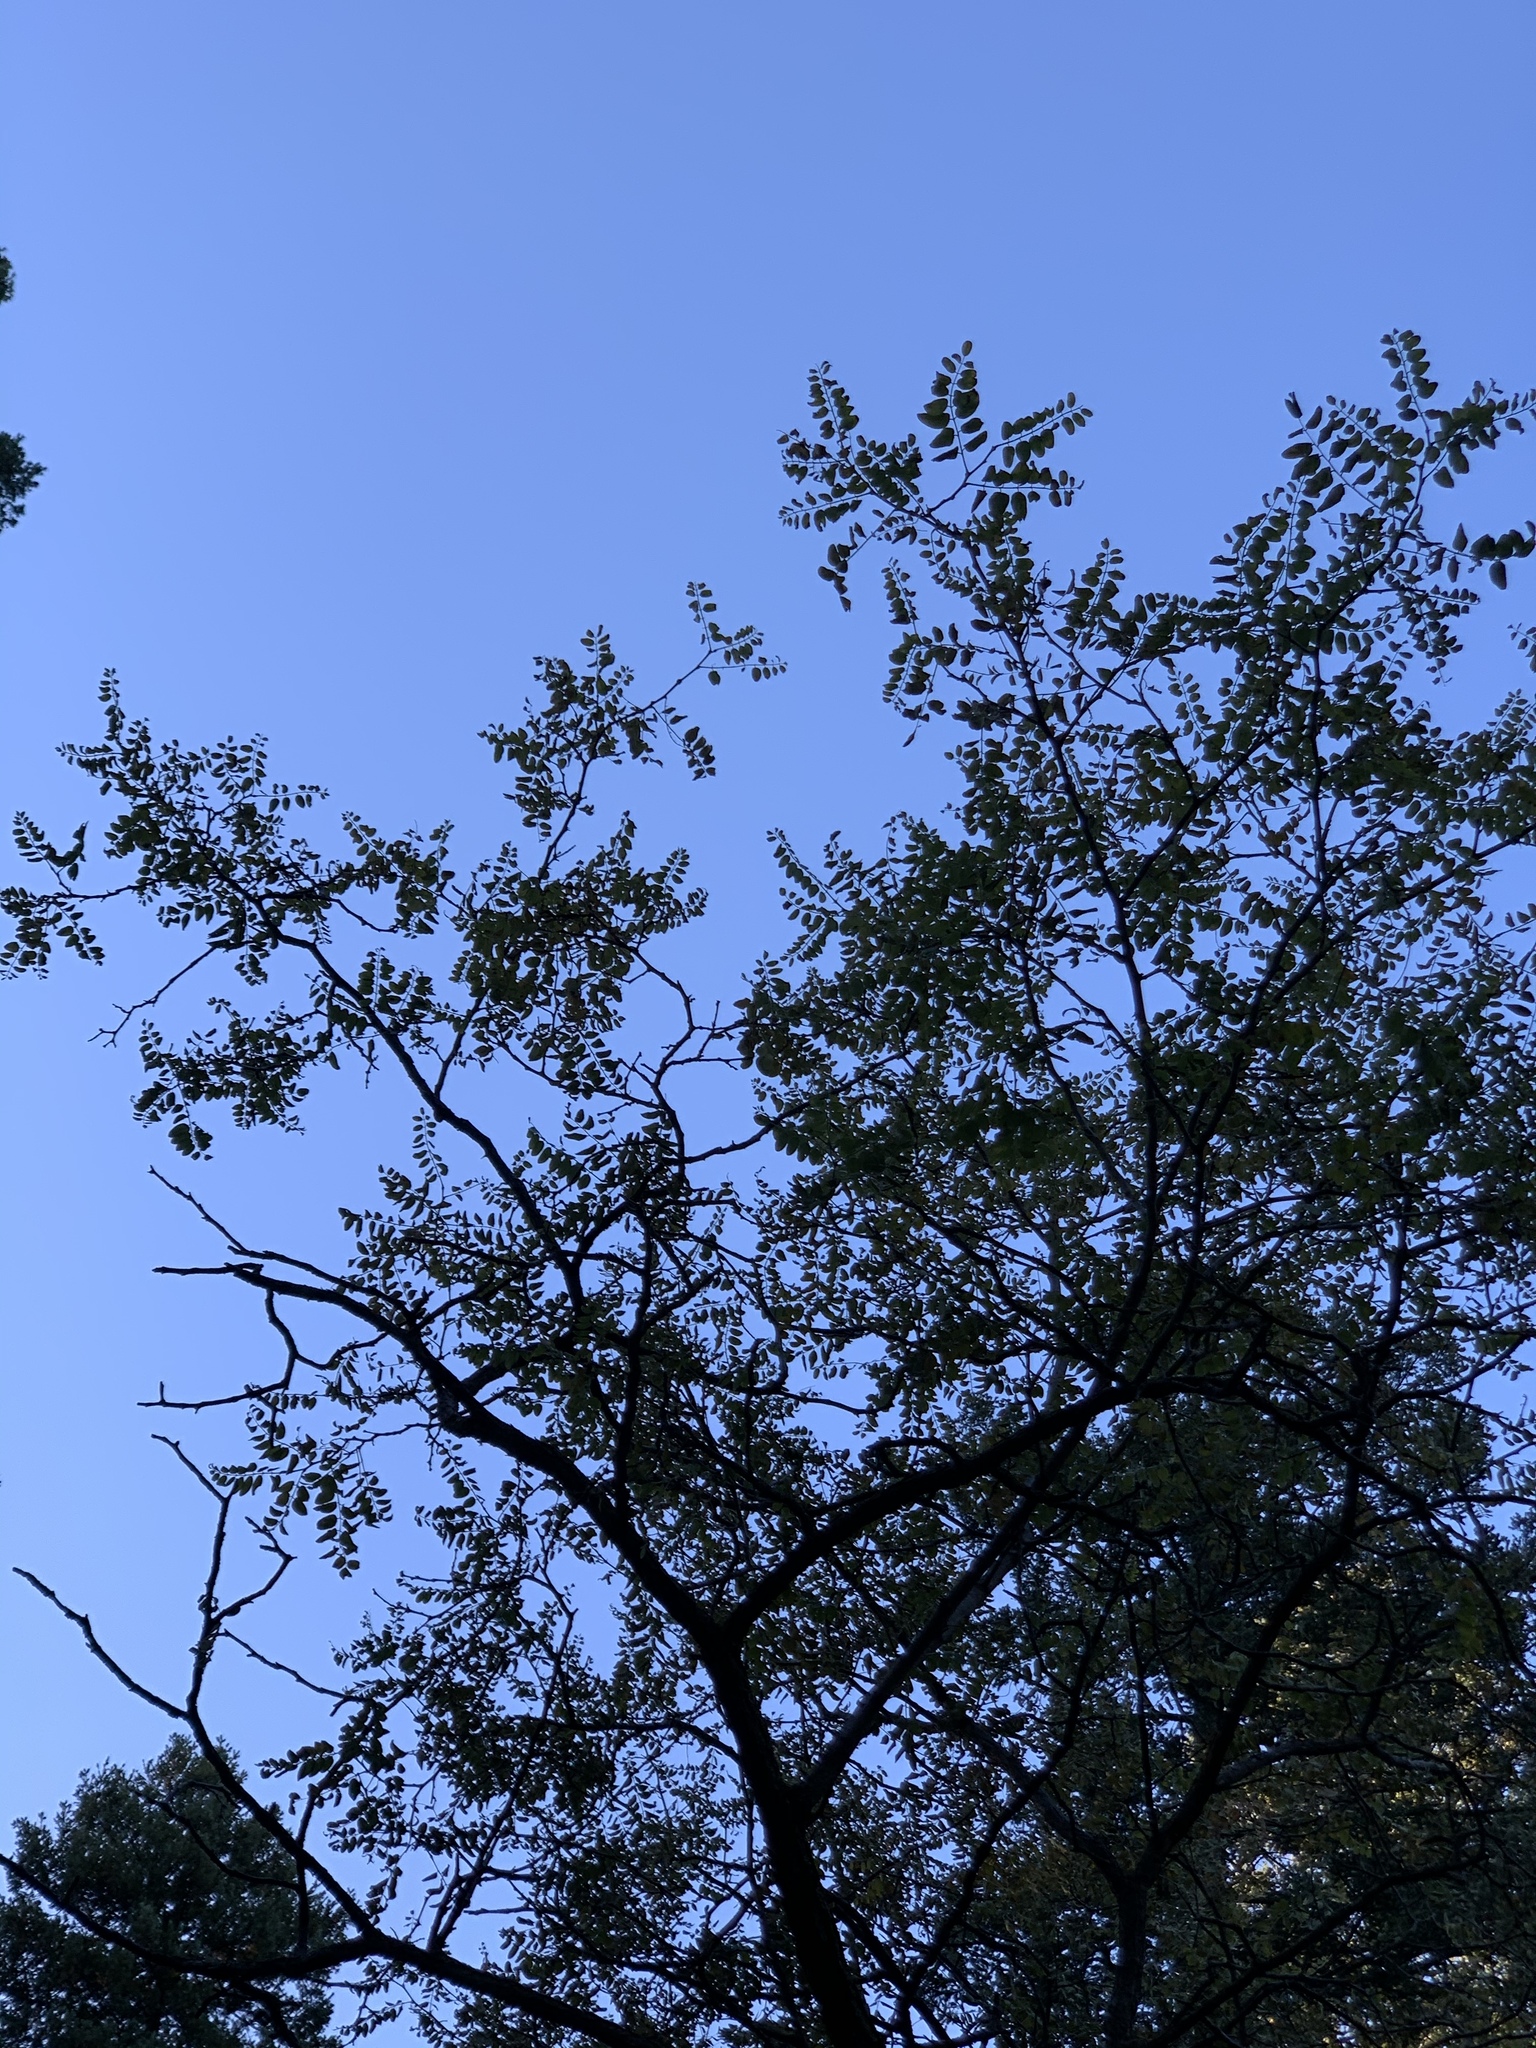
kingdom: Plantae
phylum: Tracheophyta
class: Magnoliopsida
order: Fabales
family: Fabaceae
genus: Robinia
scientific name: Robinia neomexicana
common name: New mexico locust
